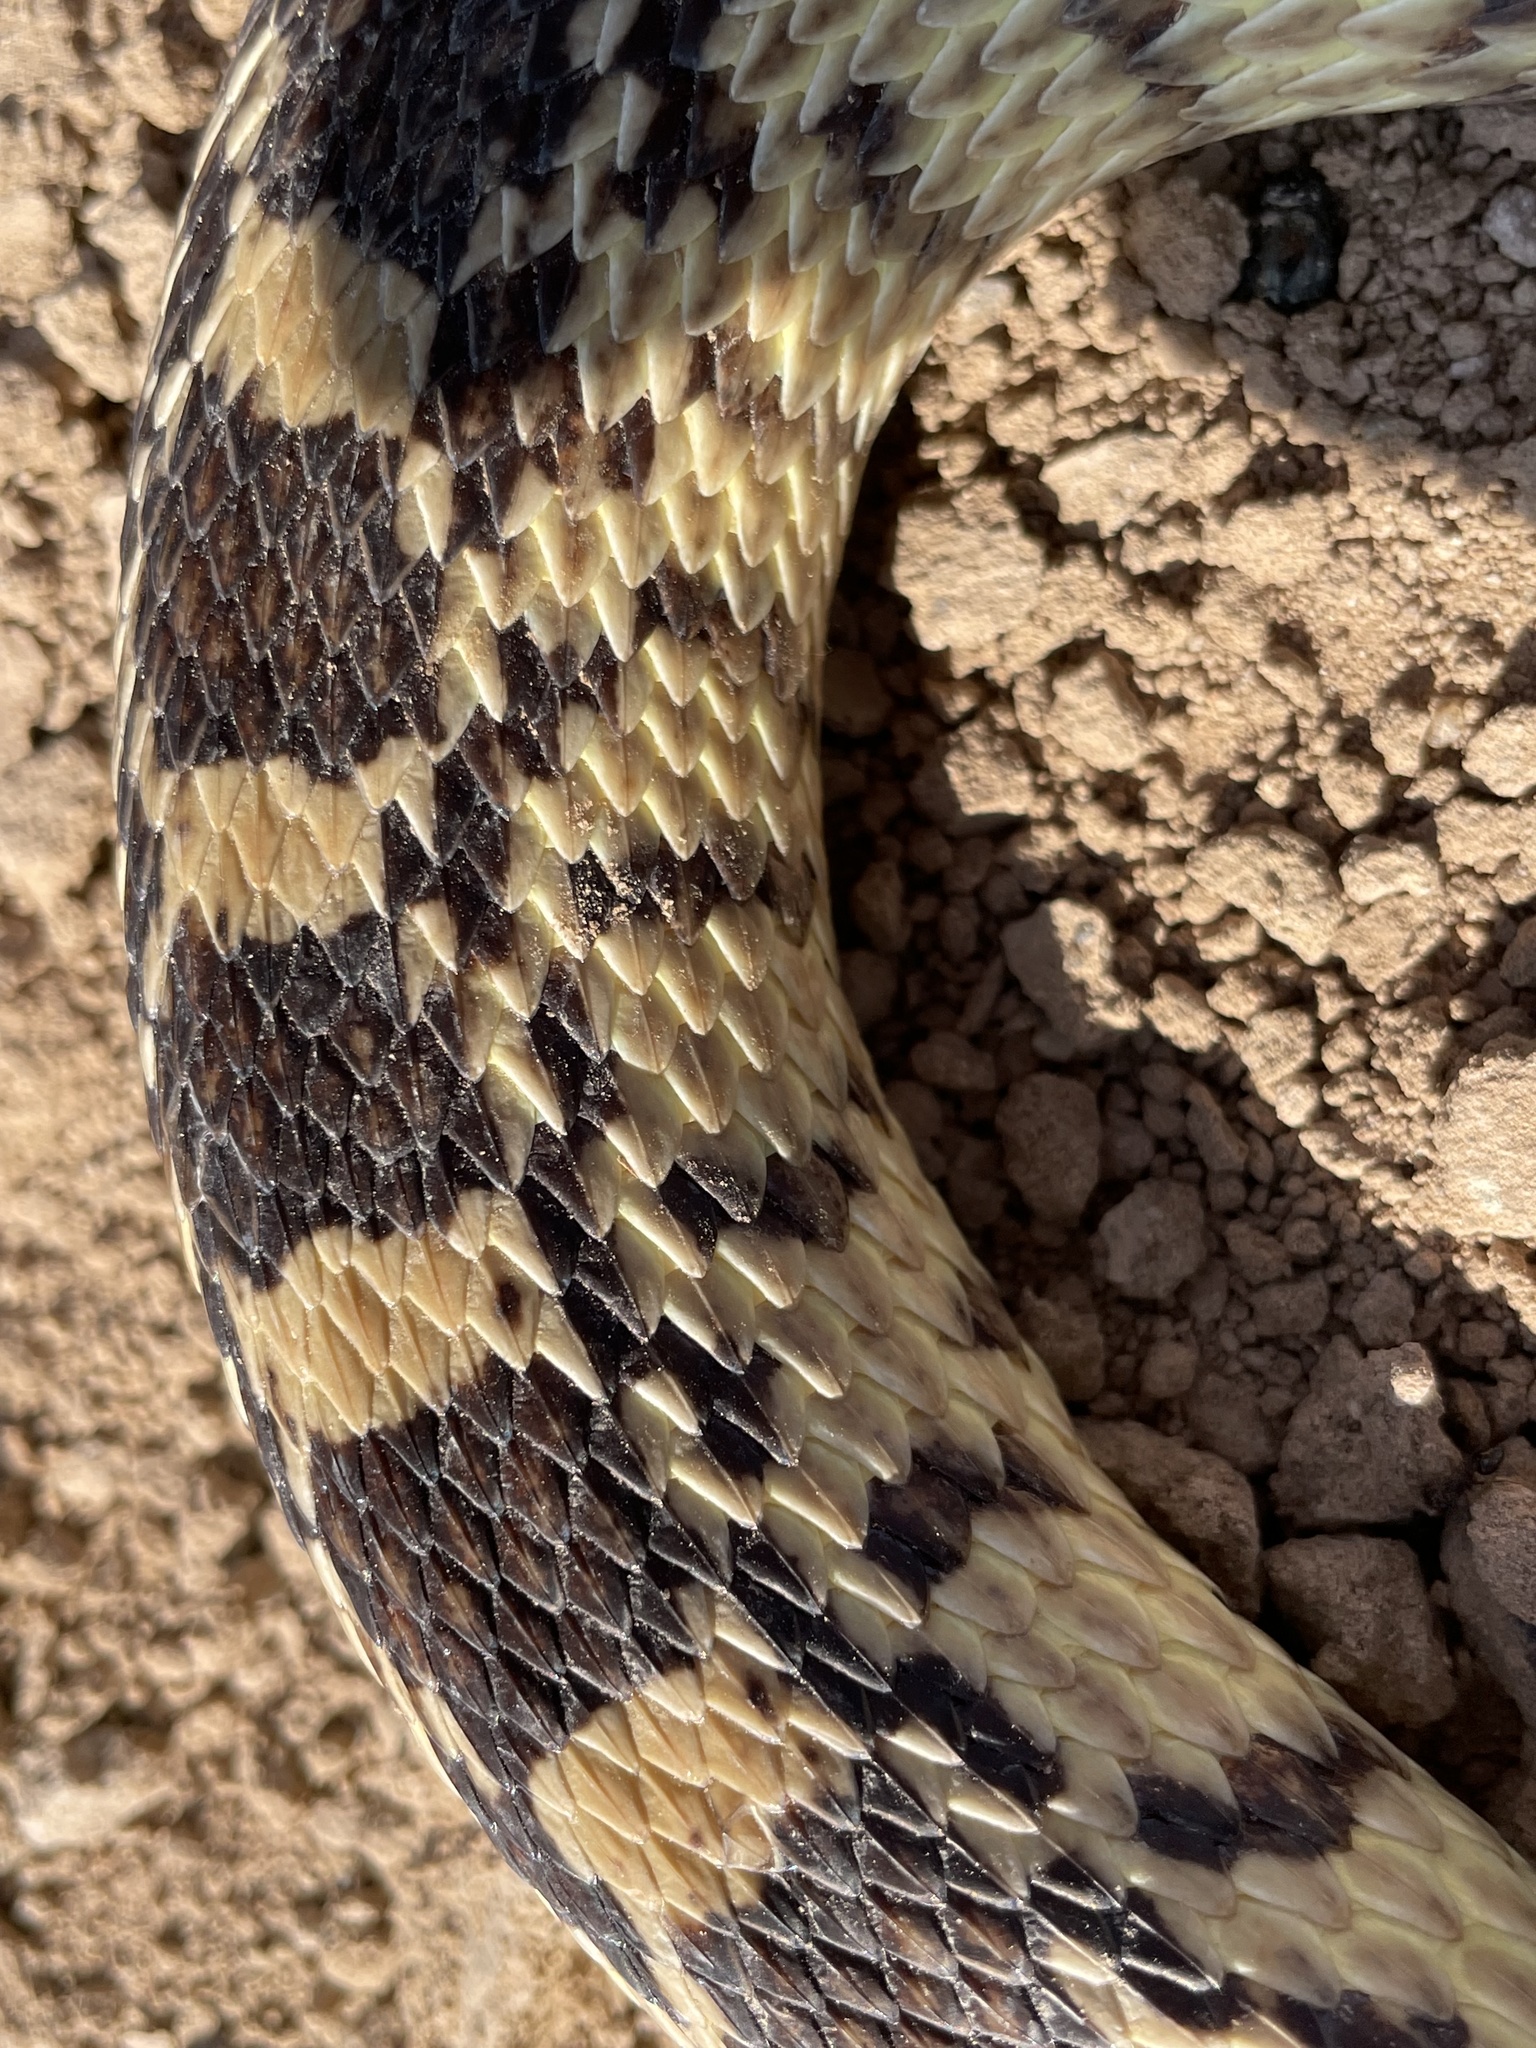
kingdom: Animalia
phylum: Chordata
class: Squamata
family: Colubridae
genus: Pituophis
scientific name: Pituophis catenifer
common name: Gopher snake
